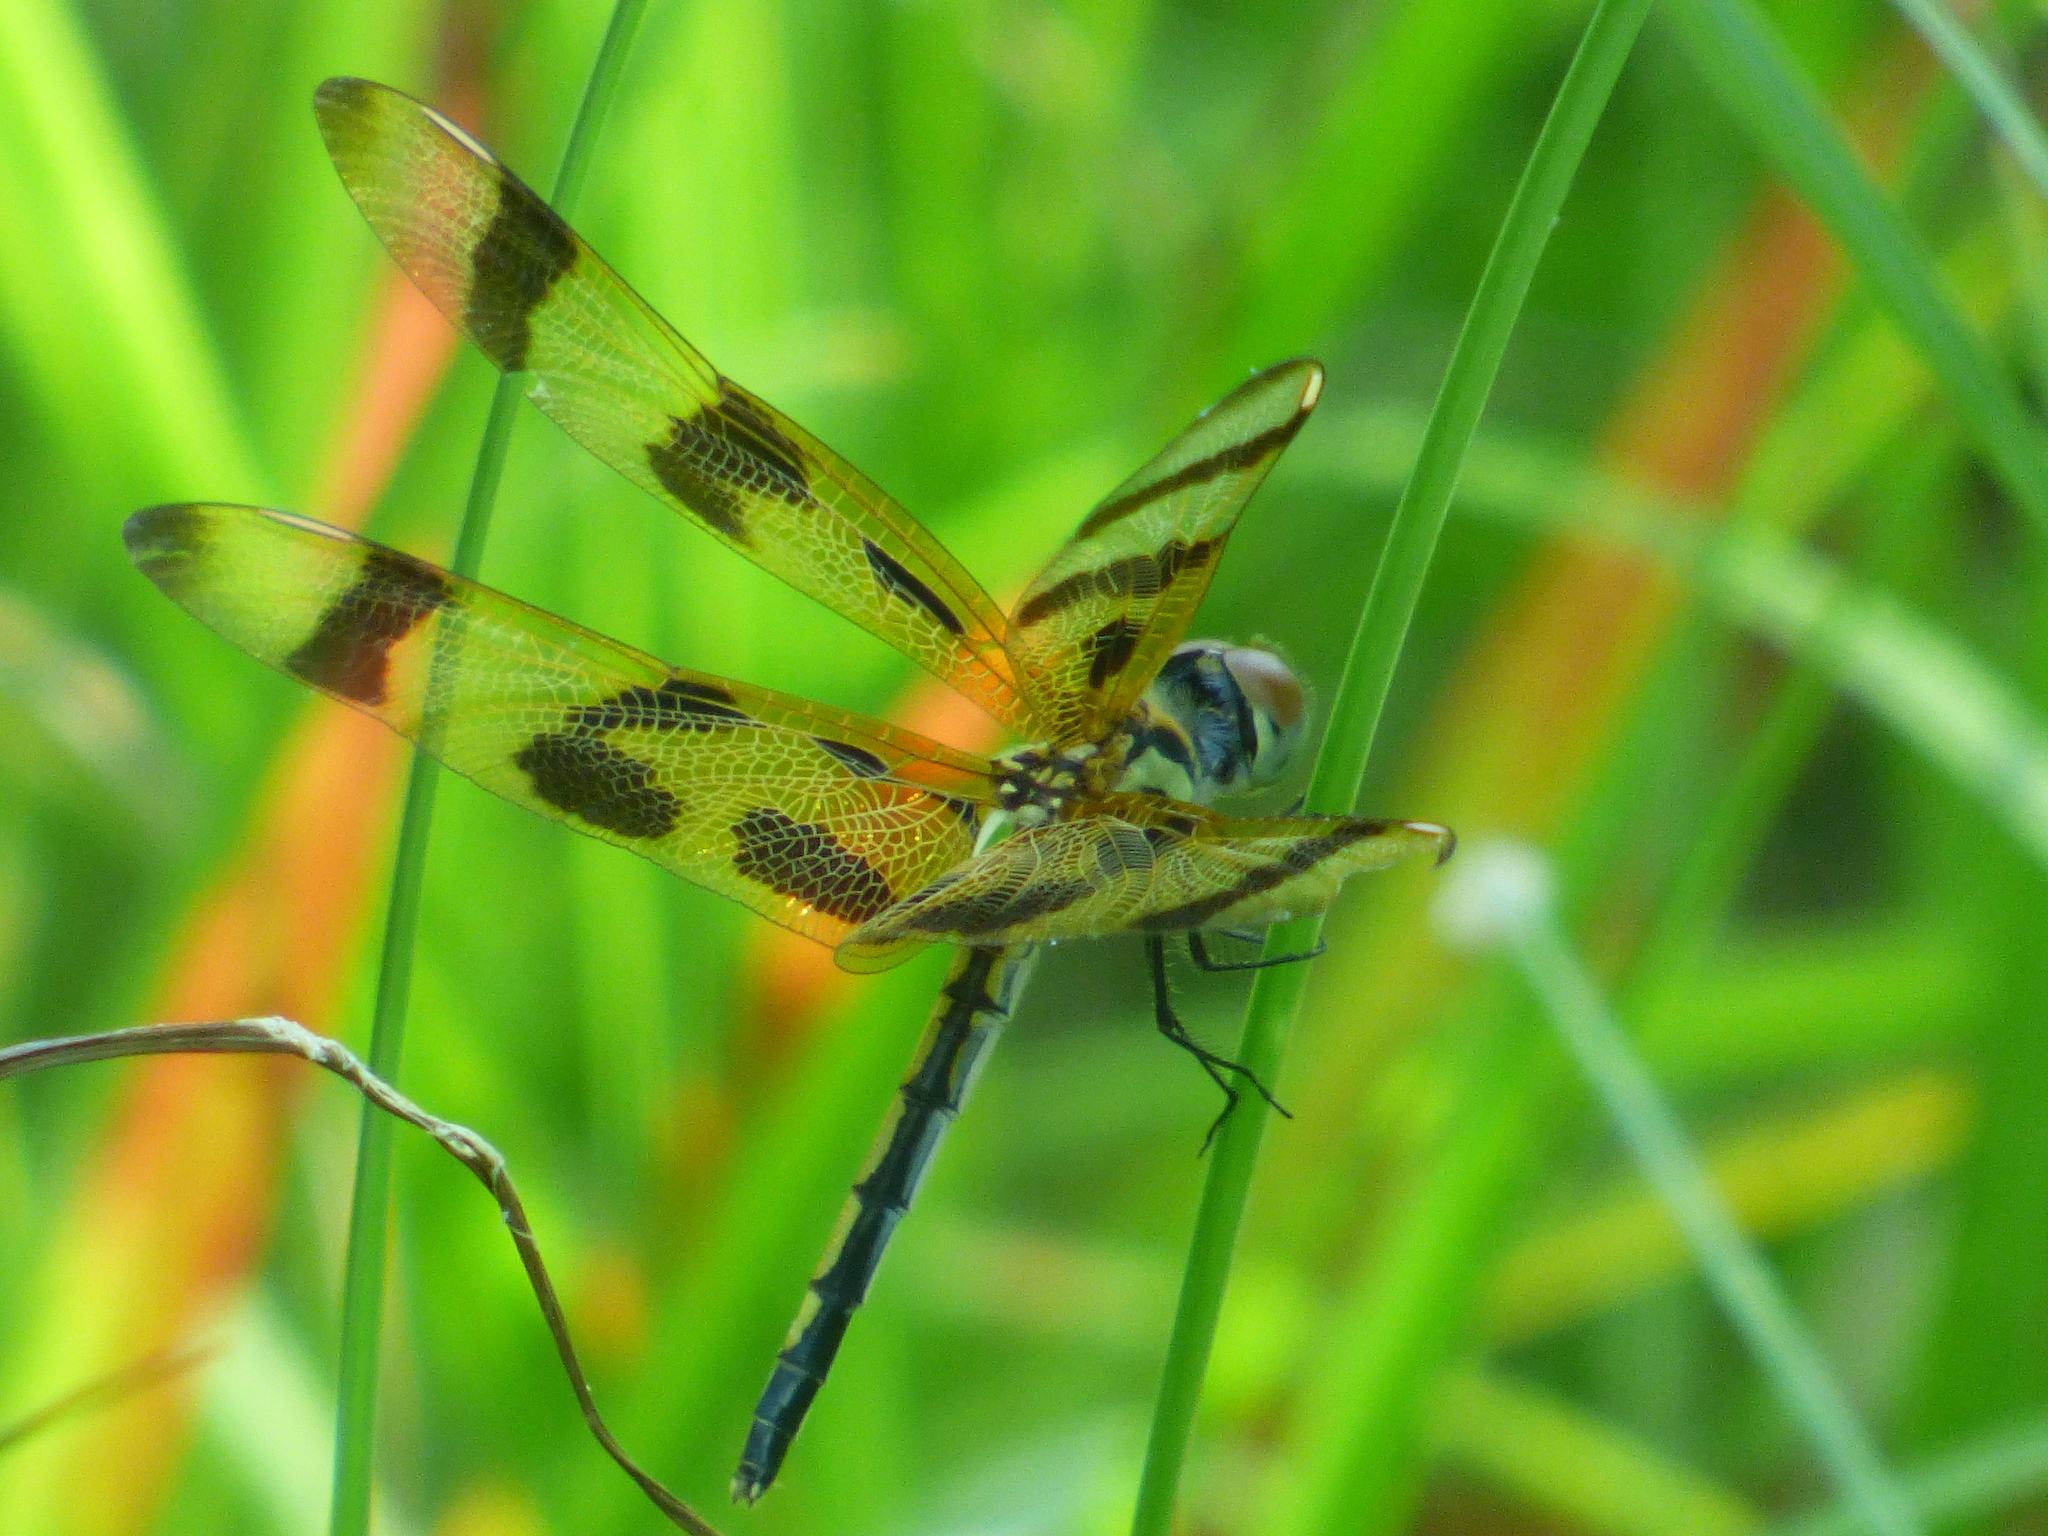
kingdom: Animalia
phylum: Arthropoda
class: Insecta
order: Odonata
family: Libellulidae
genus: Celithemis
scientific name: Celithemis eponina
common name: Halloween pennant
